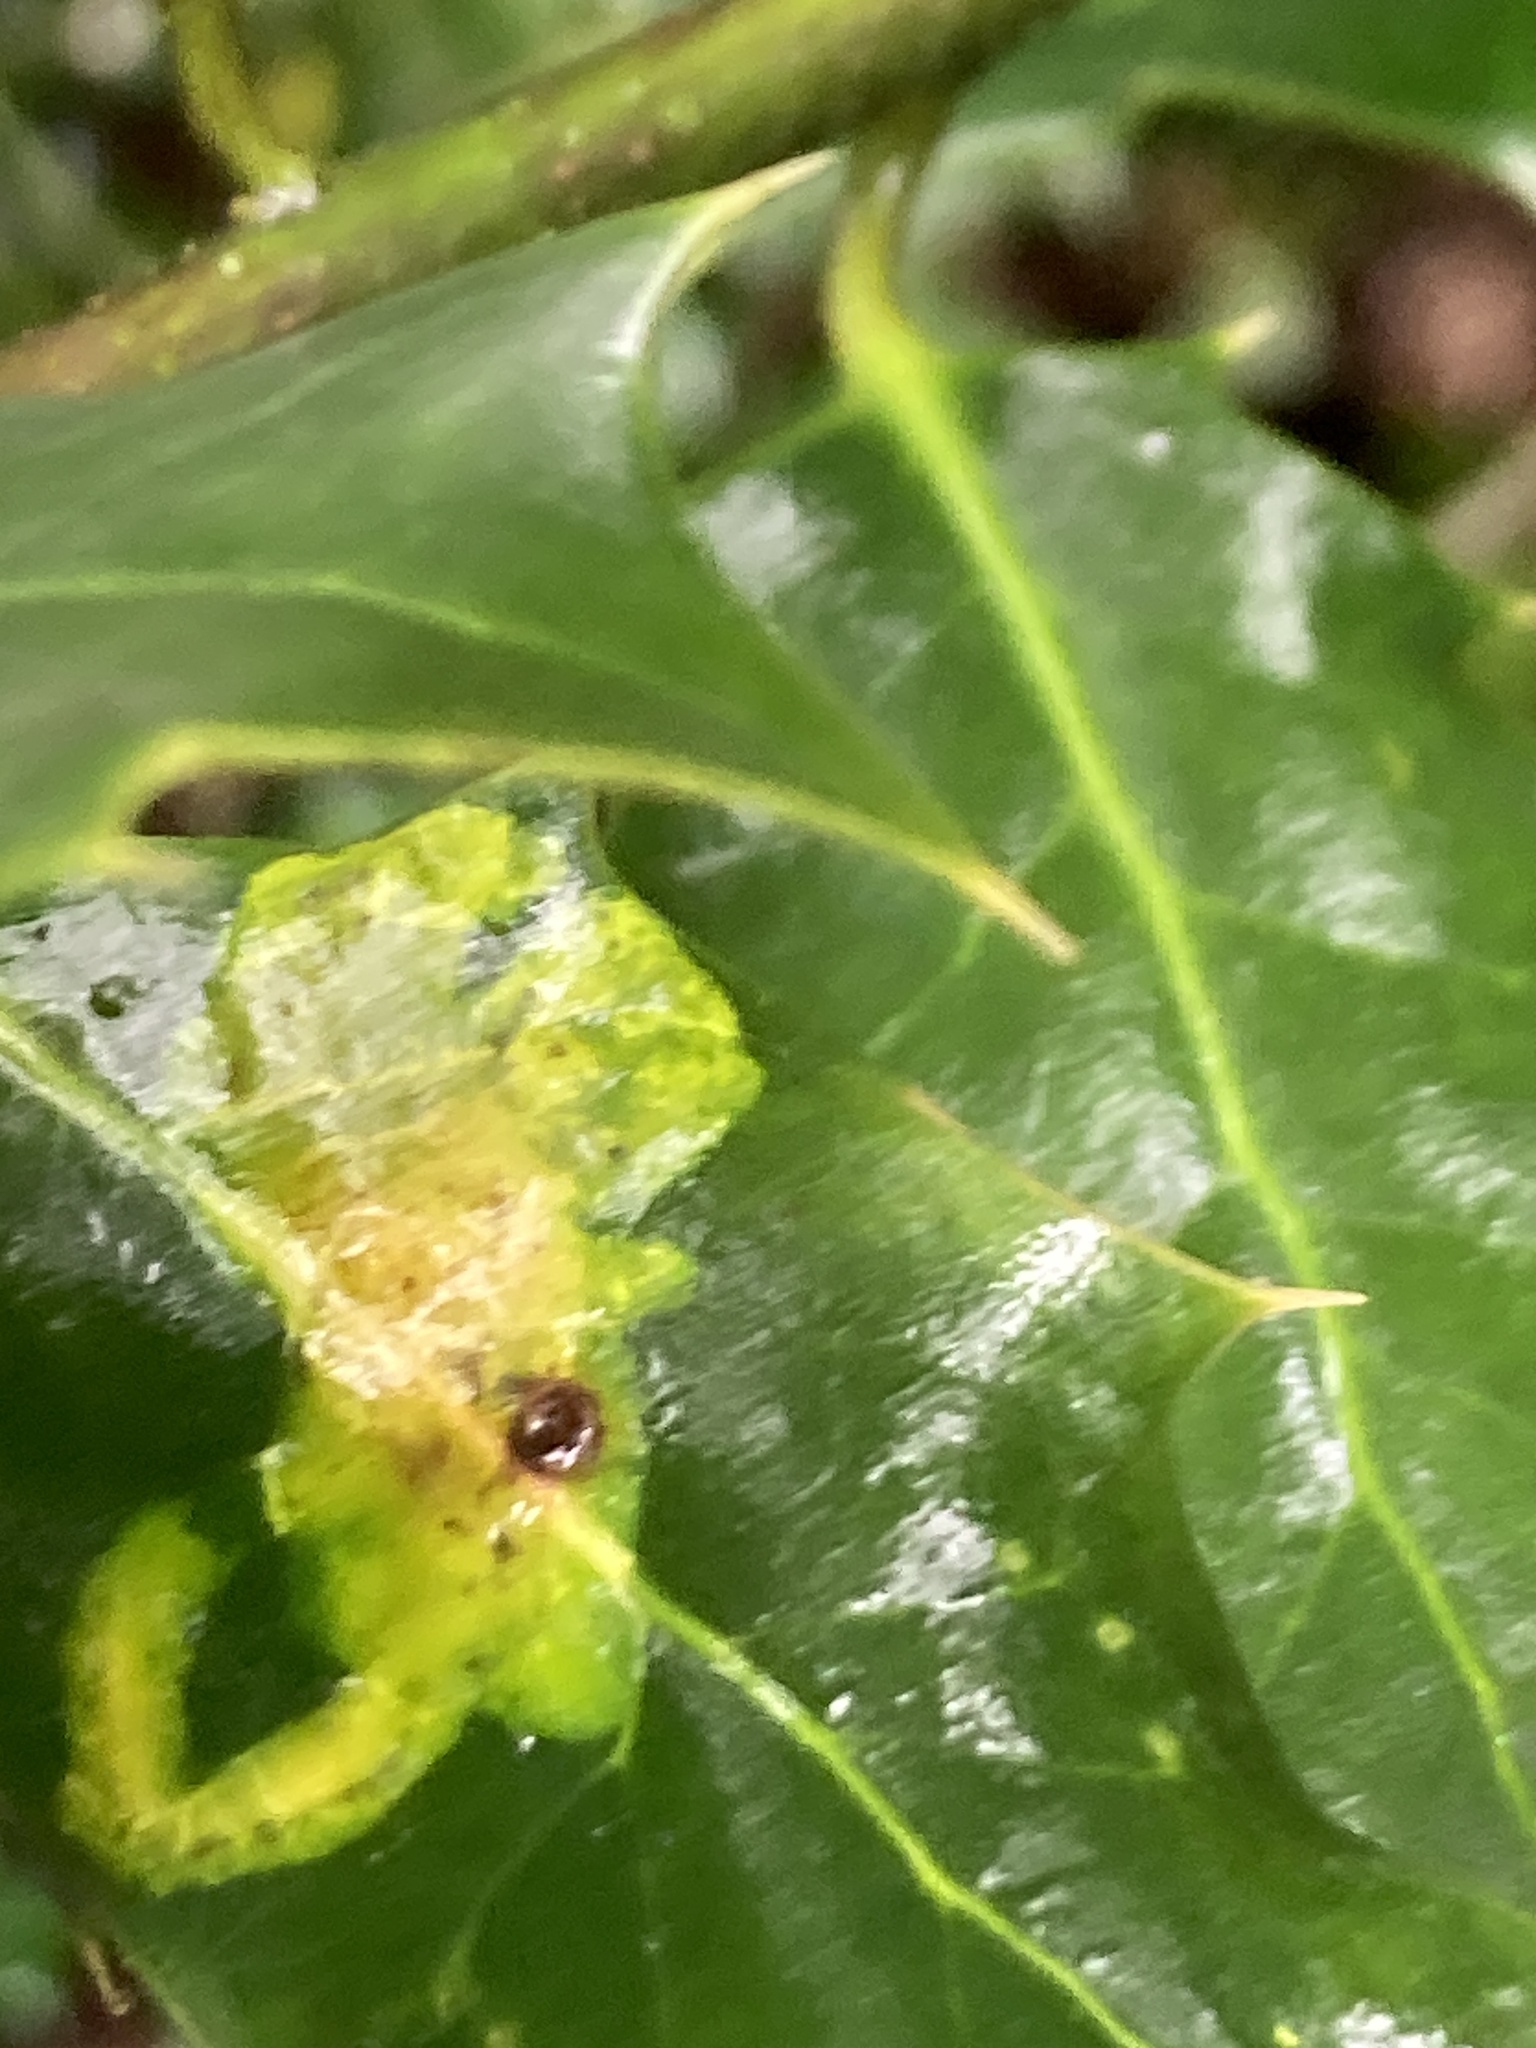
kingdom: Animalia
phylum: Arthropoda
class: Insecta
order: Diptera
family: Agromyzidae
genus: Phytomyza
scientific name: Phytomyza ilicis
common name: Holly leafminer
